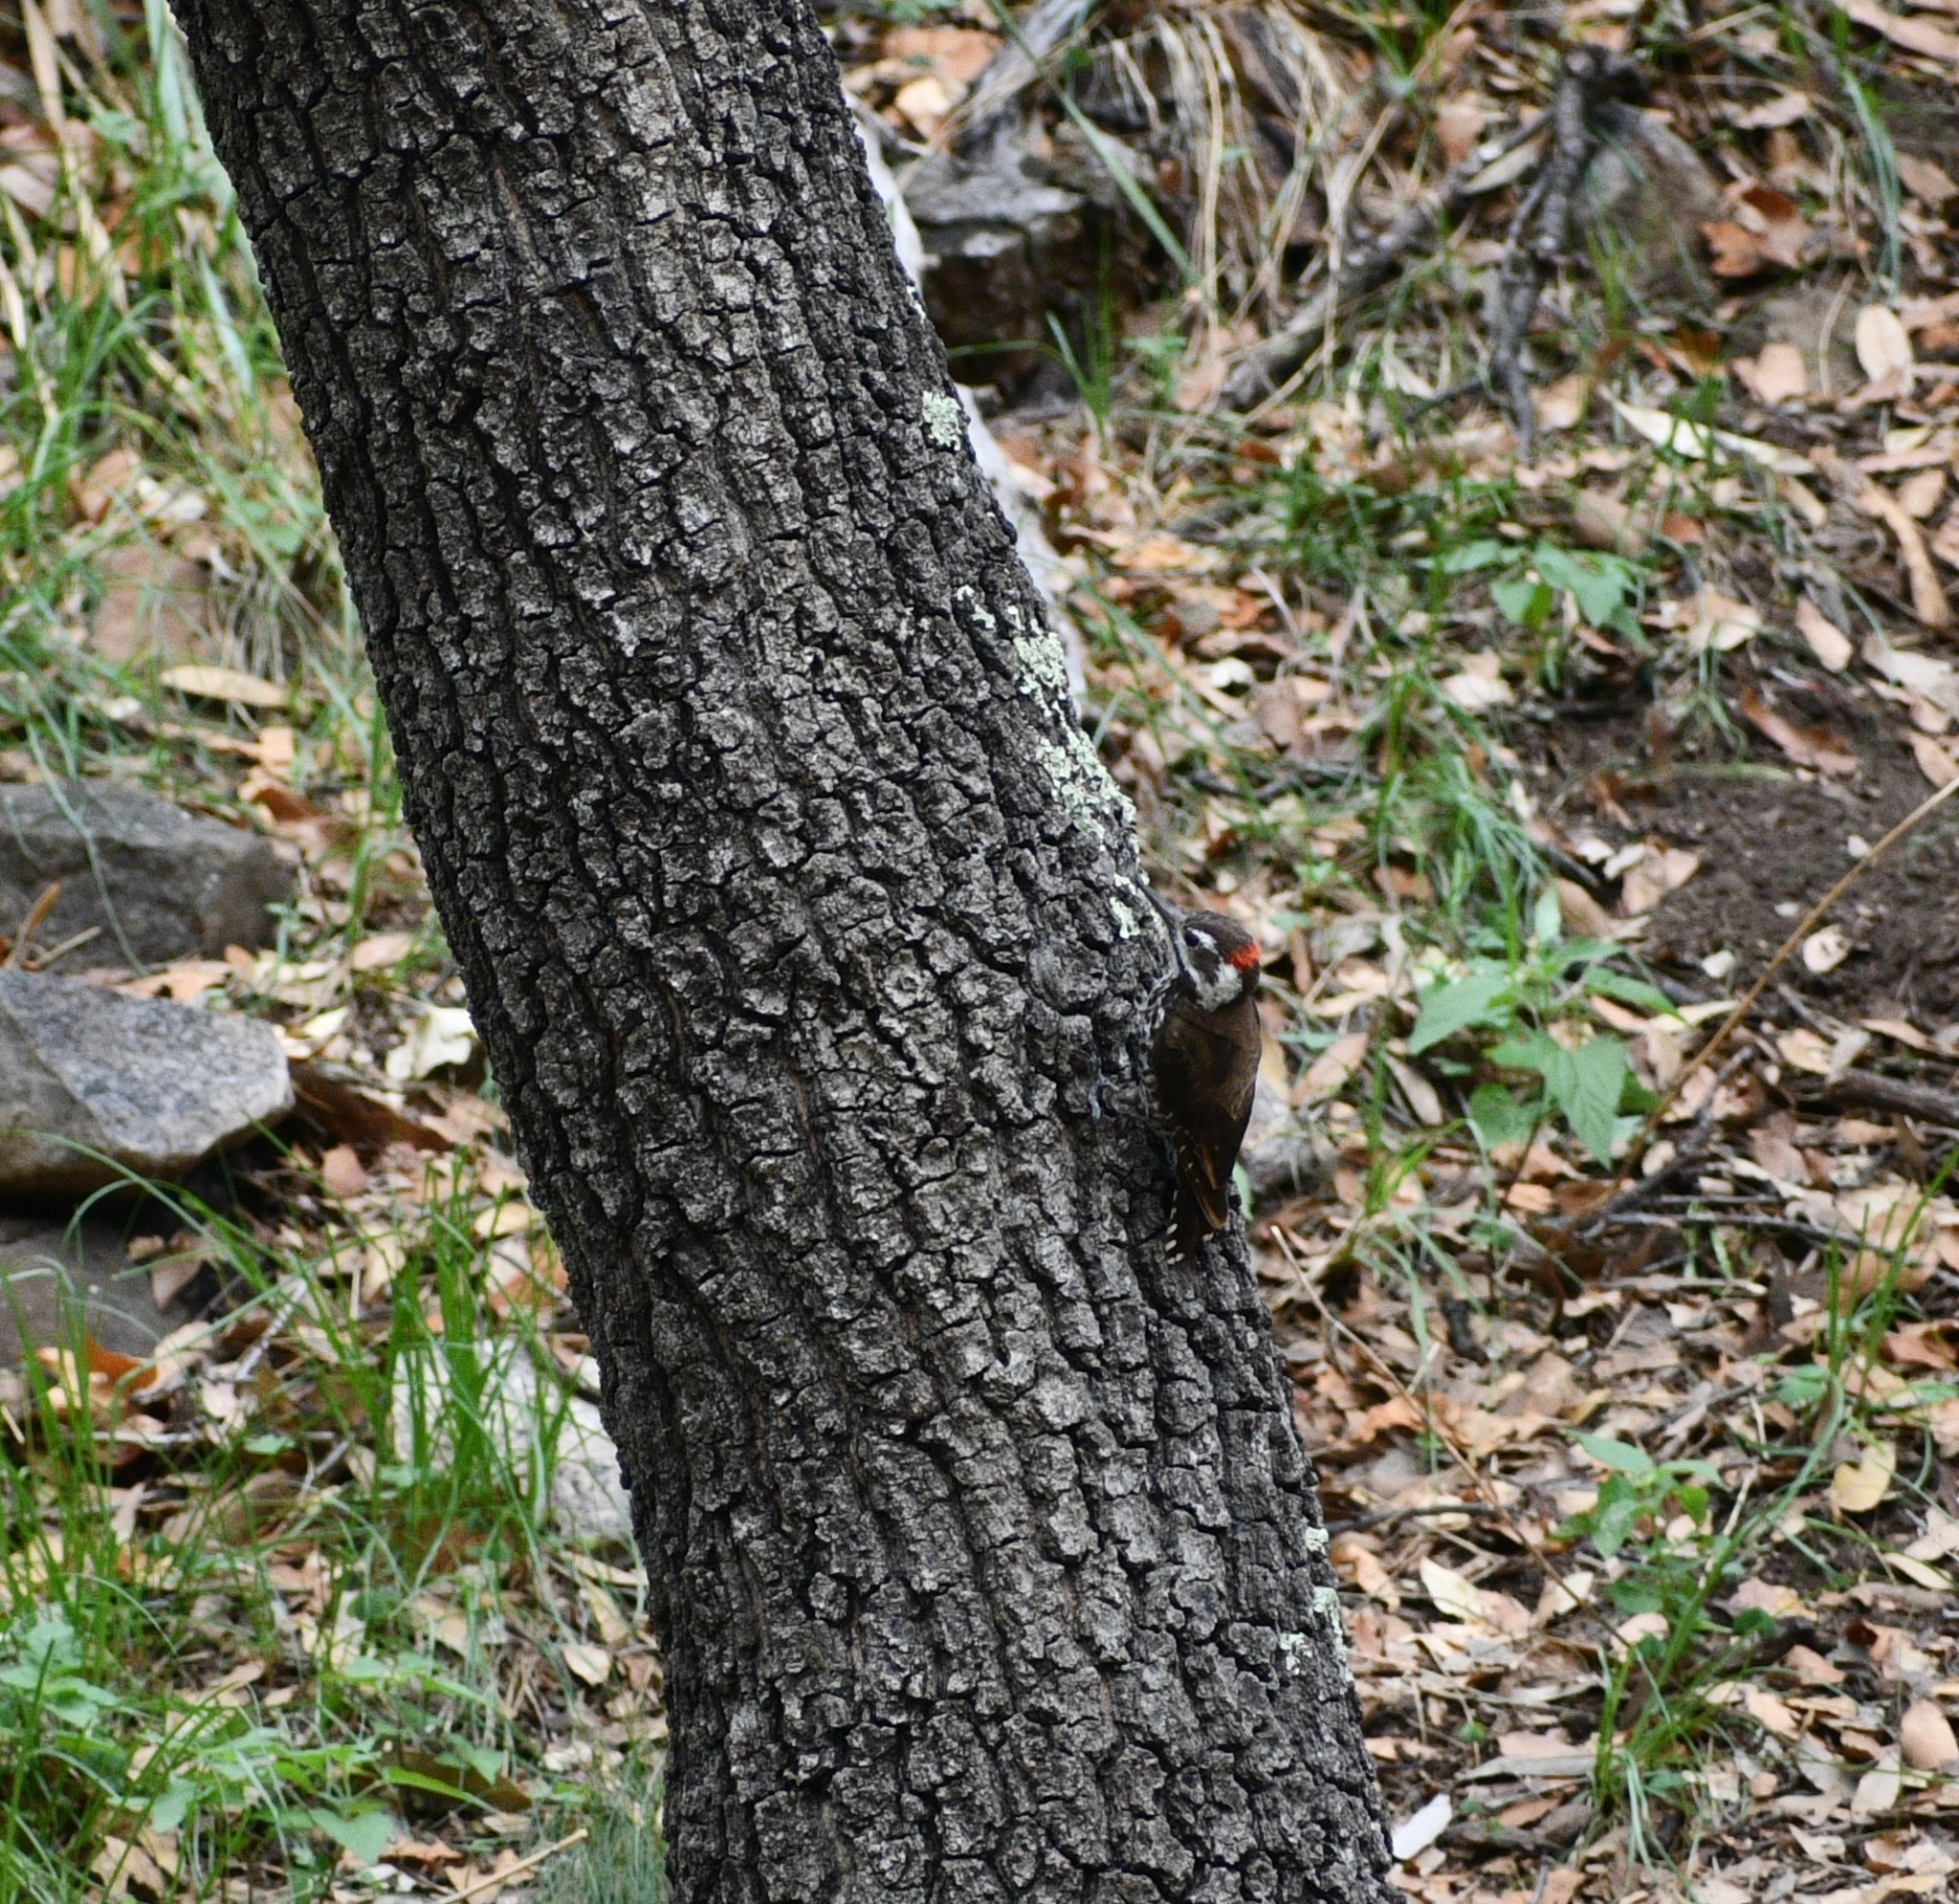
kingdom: Animalia
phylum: Chordata
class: Aves
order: Piciformes
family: Picidae
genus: Leuconotopicus
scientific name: Leuconotopicus arizonae
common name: Arizona woodpecker
